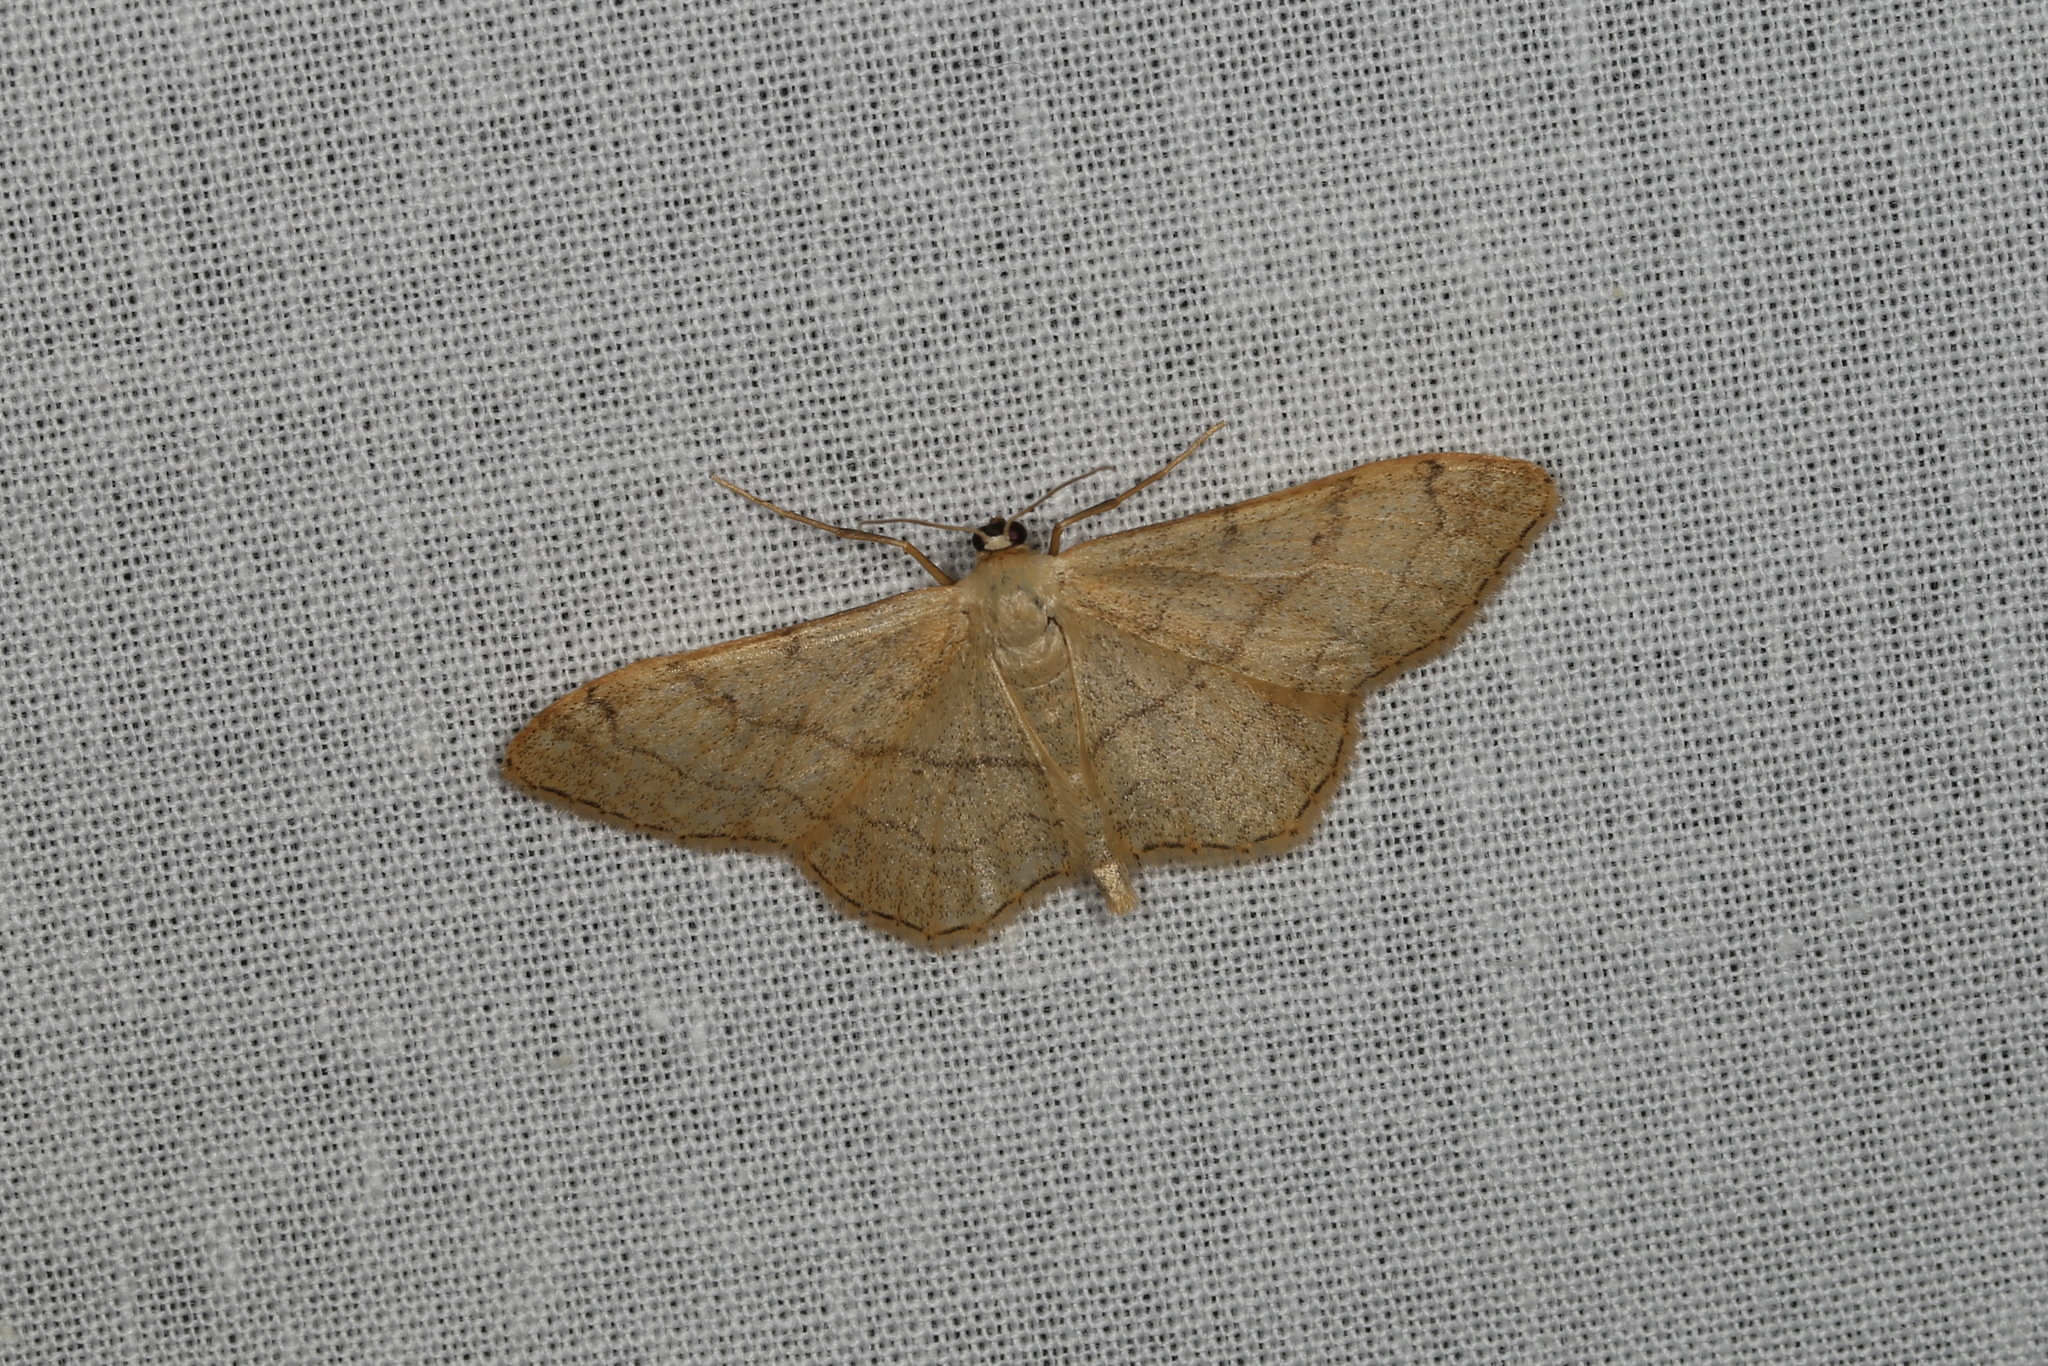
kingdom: Animalia
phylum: Arthropoda
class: Insecta
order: Lepidoptera
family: Geometridae
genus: Idaea
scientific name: Idaea aversata
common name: Riband wave
